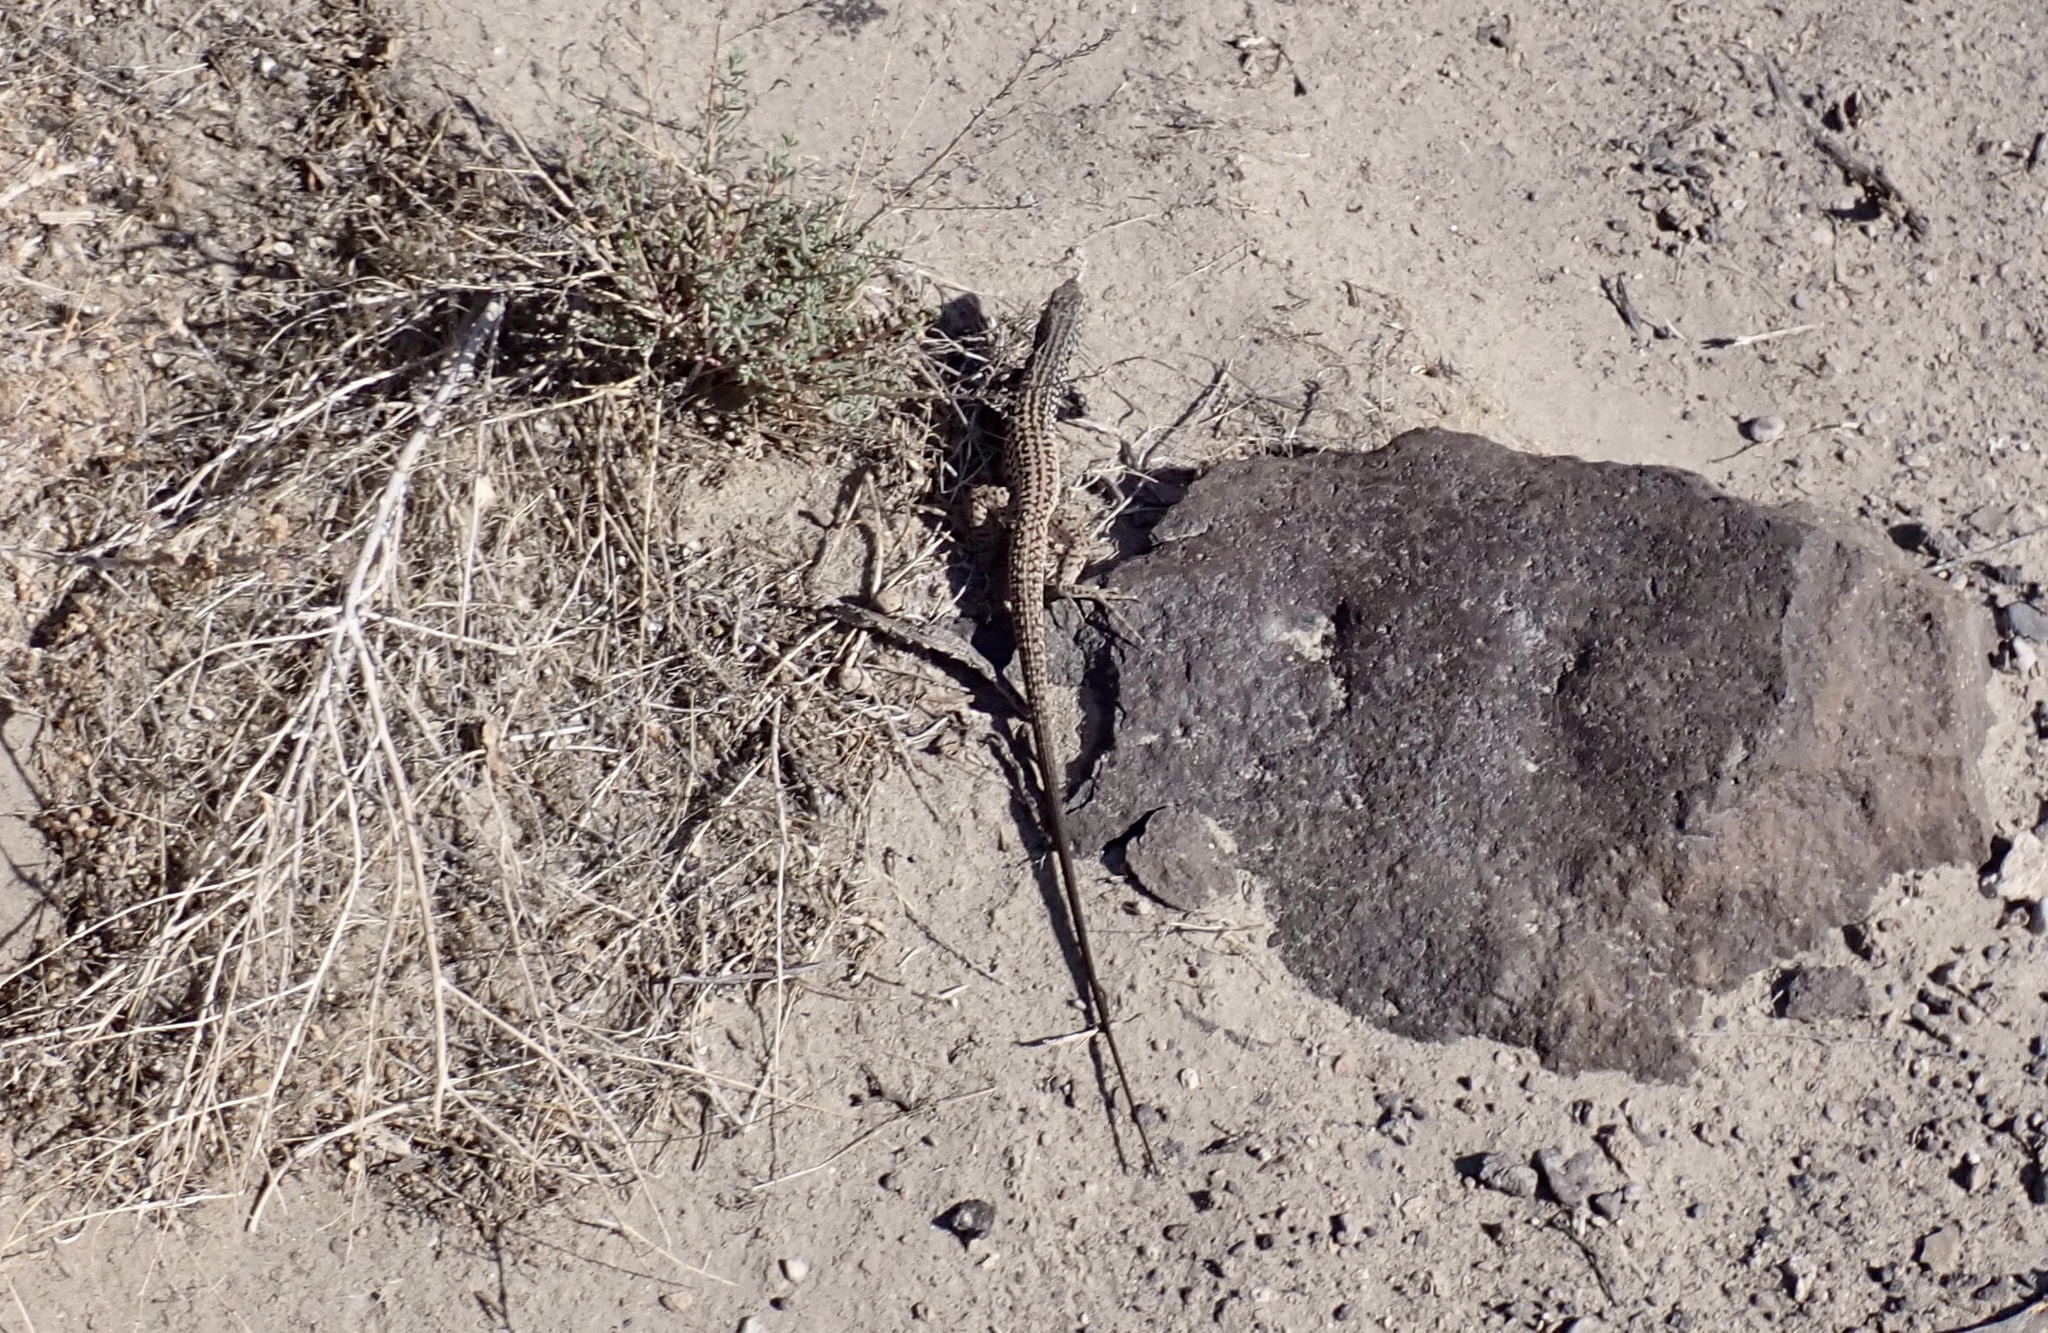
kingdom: Animalia
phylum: Chordata
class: Squamata
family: Teiidae
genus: Aspidoscelis
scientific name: Aspidoscelis tigris
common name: Tiger whiptail
